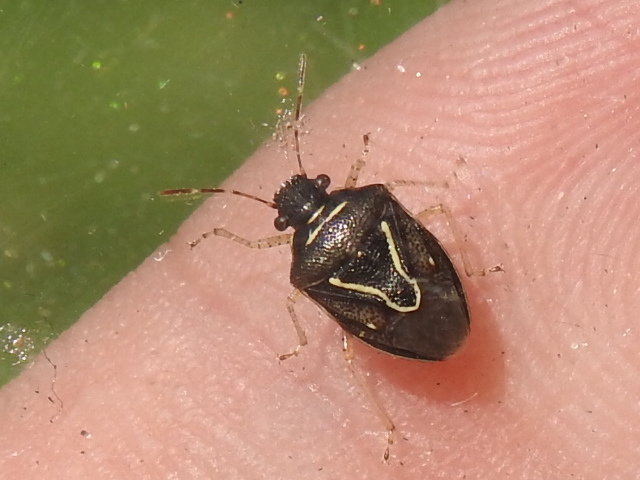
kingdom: Animalia
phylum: Arthropoda
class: Insecta
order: Hemiptera
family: Pentatomidae
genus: Mormidea
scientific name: Mormidea lugens
